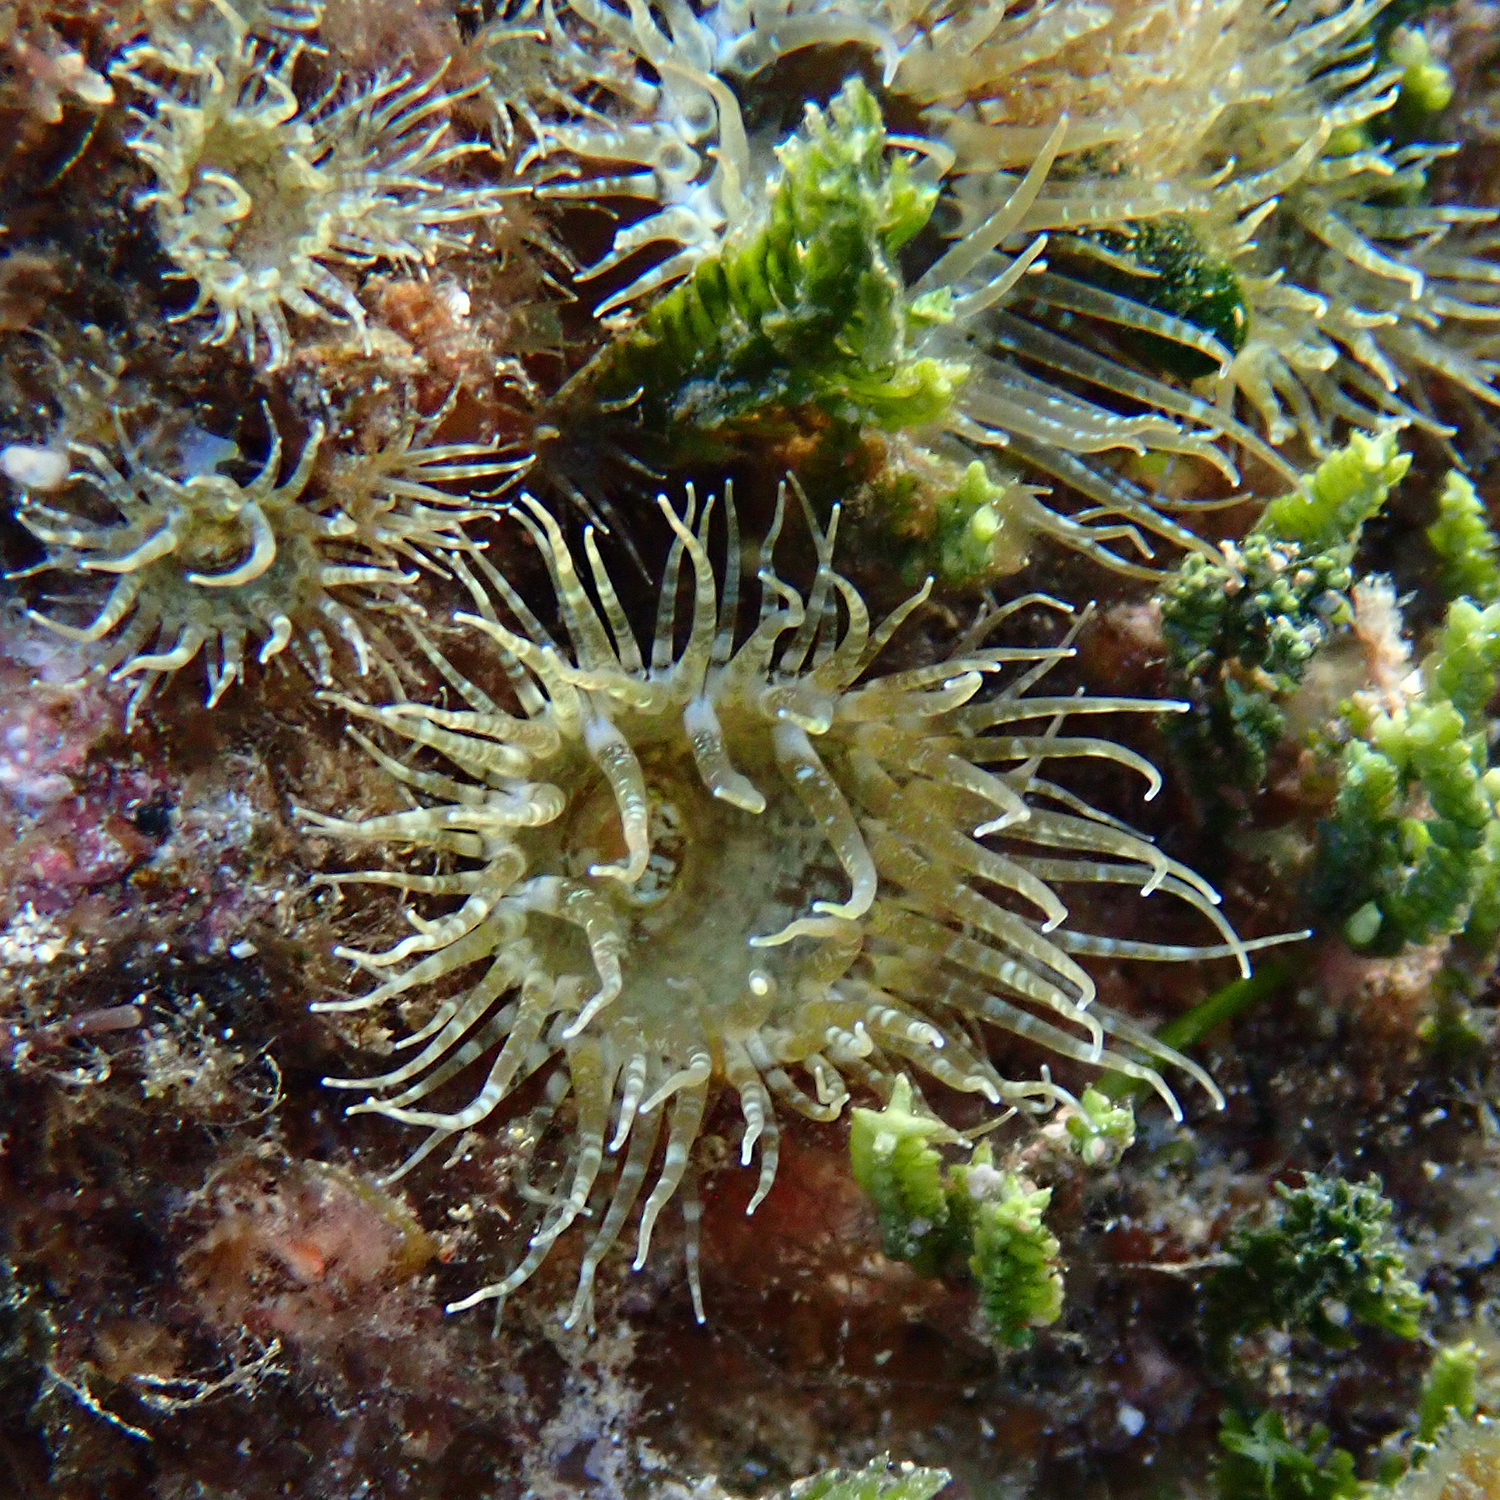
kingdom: Animalia
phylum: Cnidaria
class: Anthozoa
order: Actiniaria
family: Aiptasiidae
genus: Exaiptasia
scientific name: Exaiptasia diaphana
